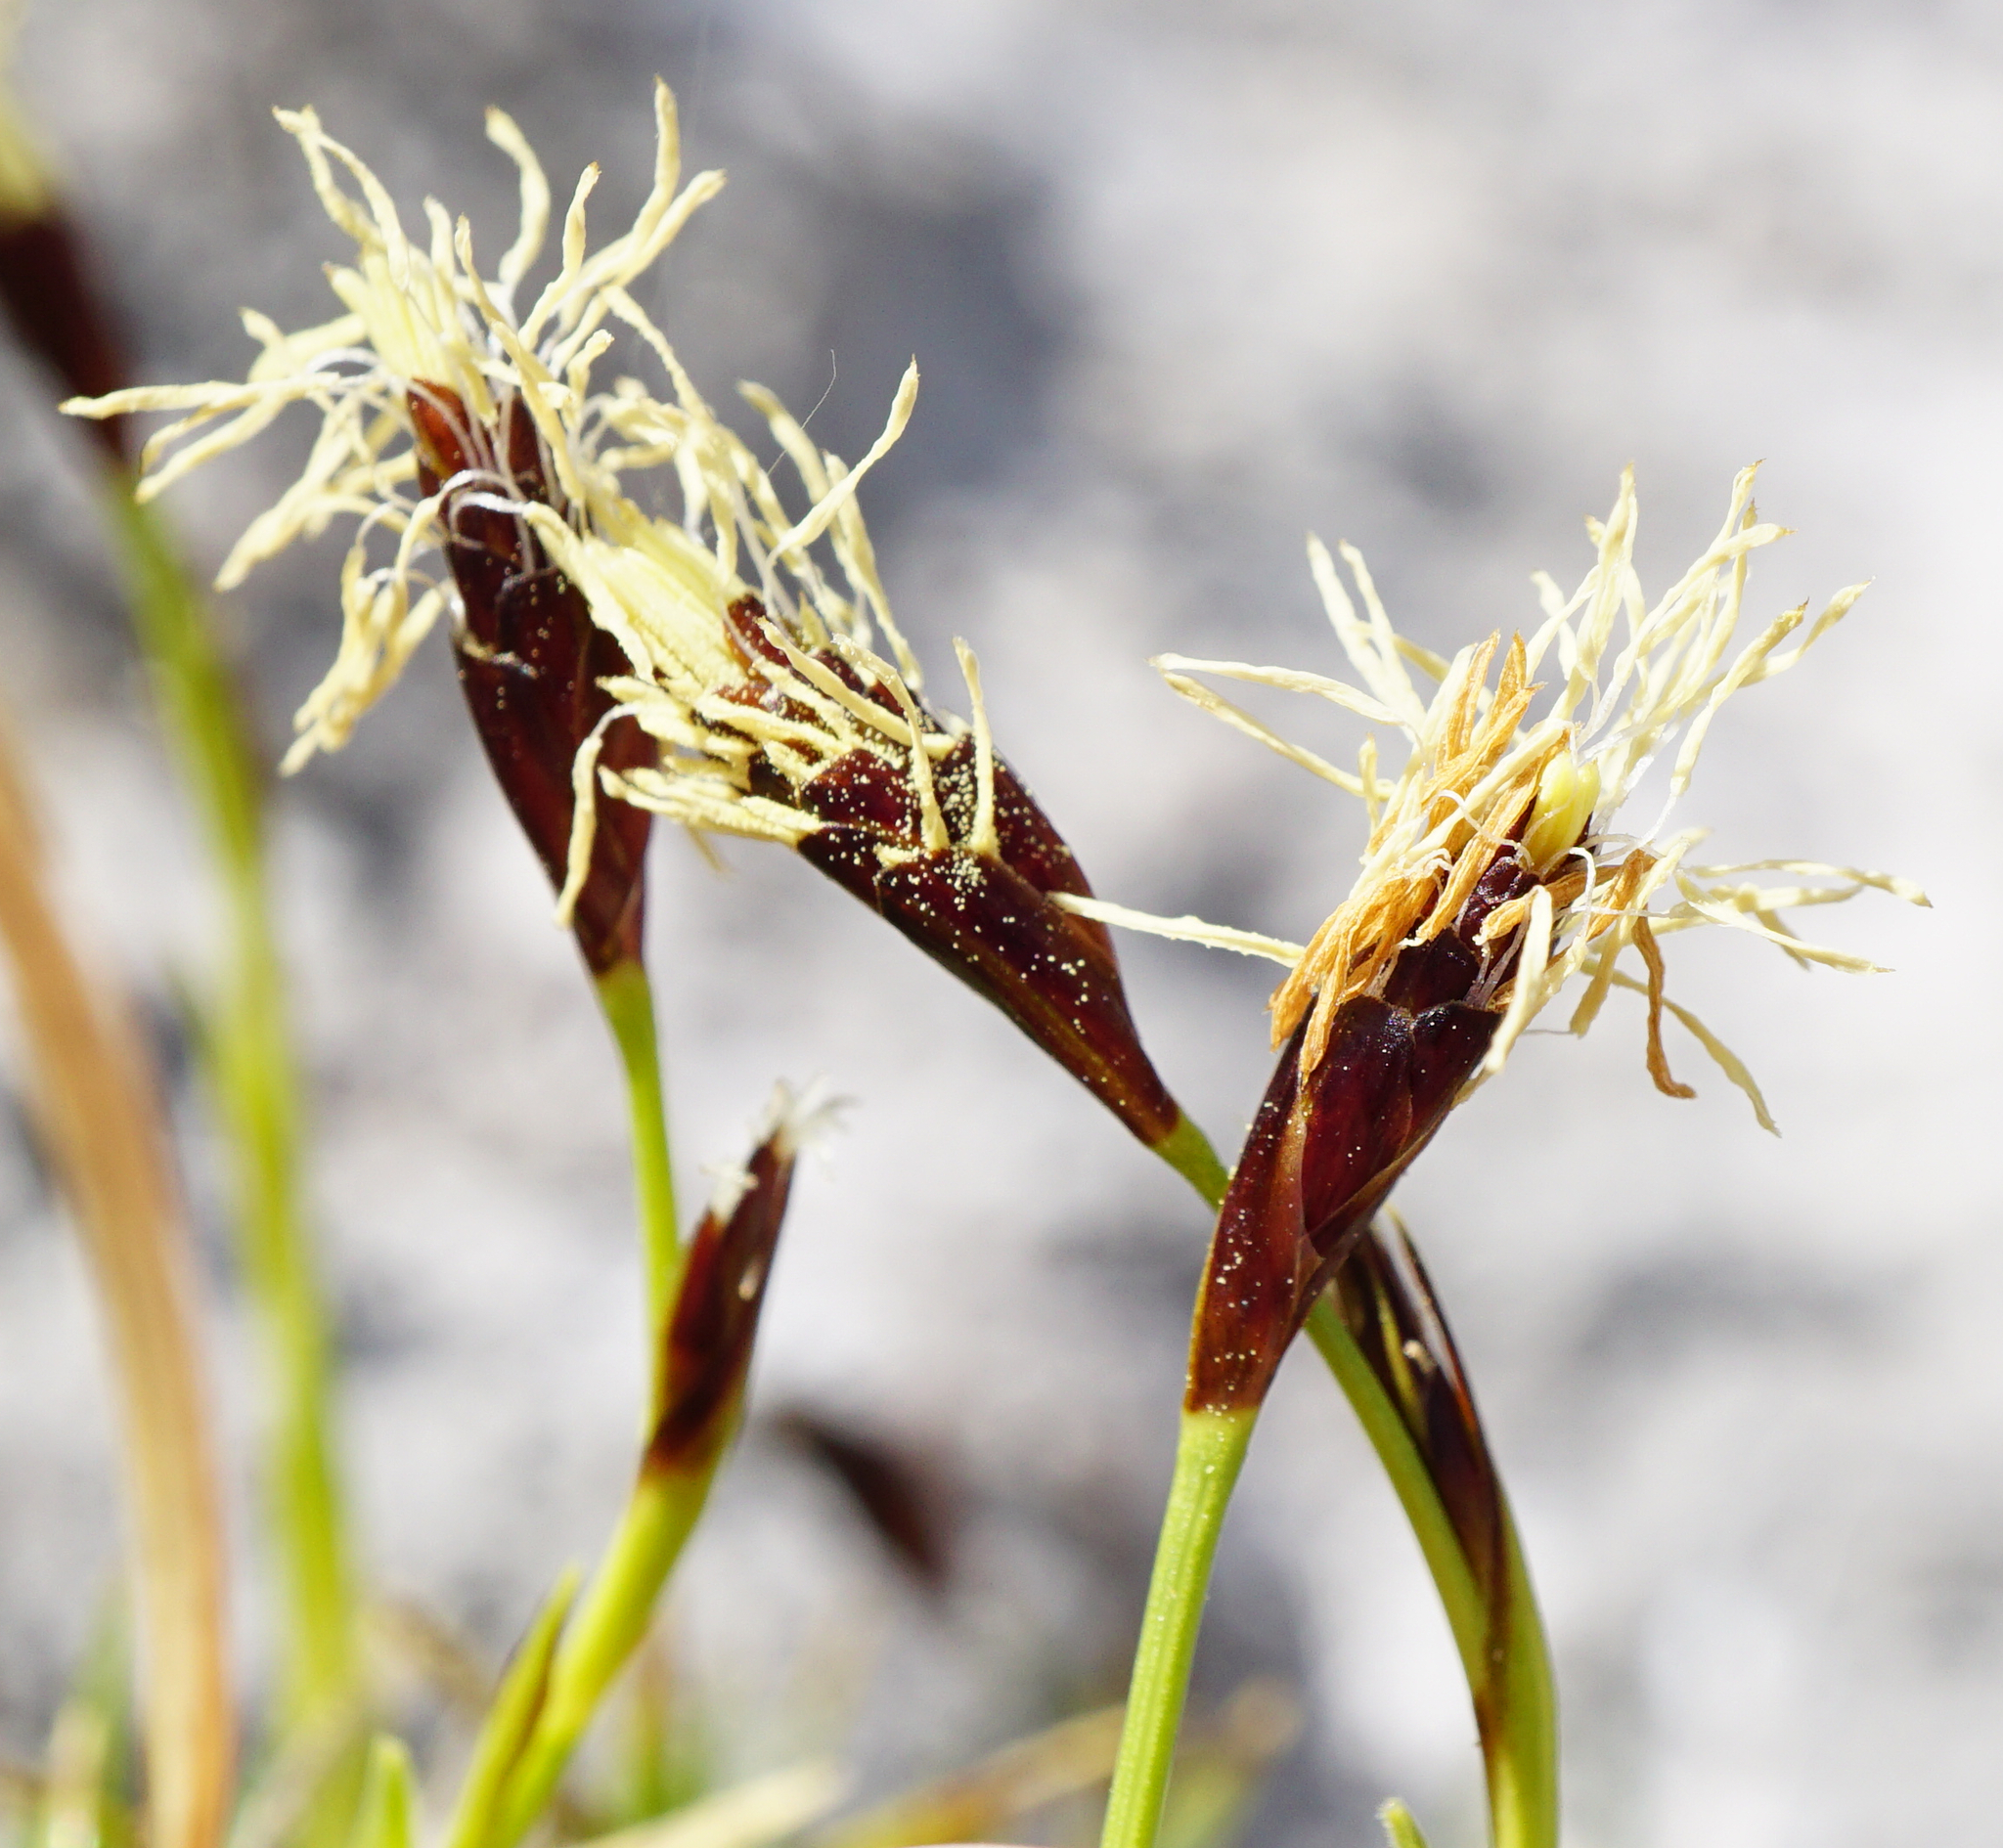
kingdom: Plantae
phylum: Tracheophyta
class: Liliopsida
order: Poales
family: Cyperaceae
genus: Carex
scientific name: Carex firma
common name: Dwarf pillow sedge
